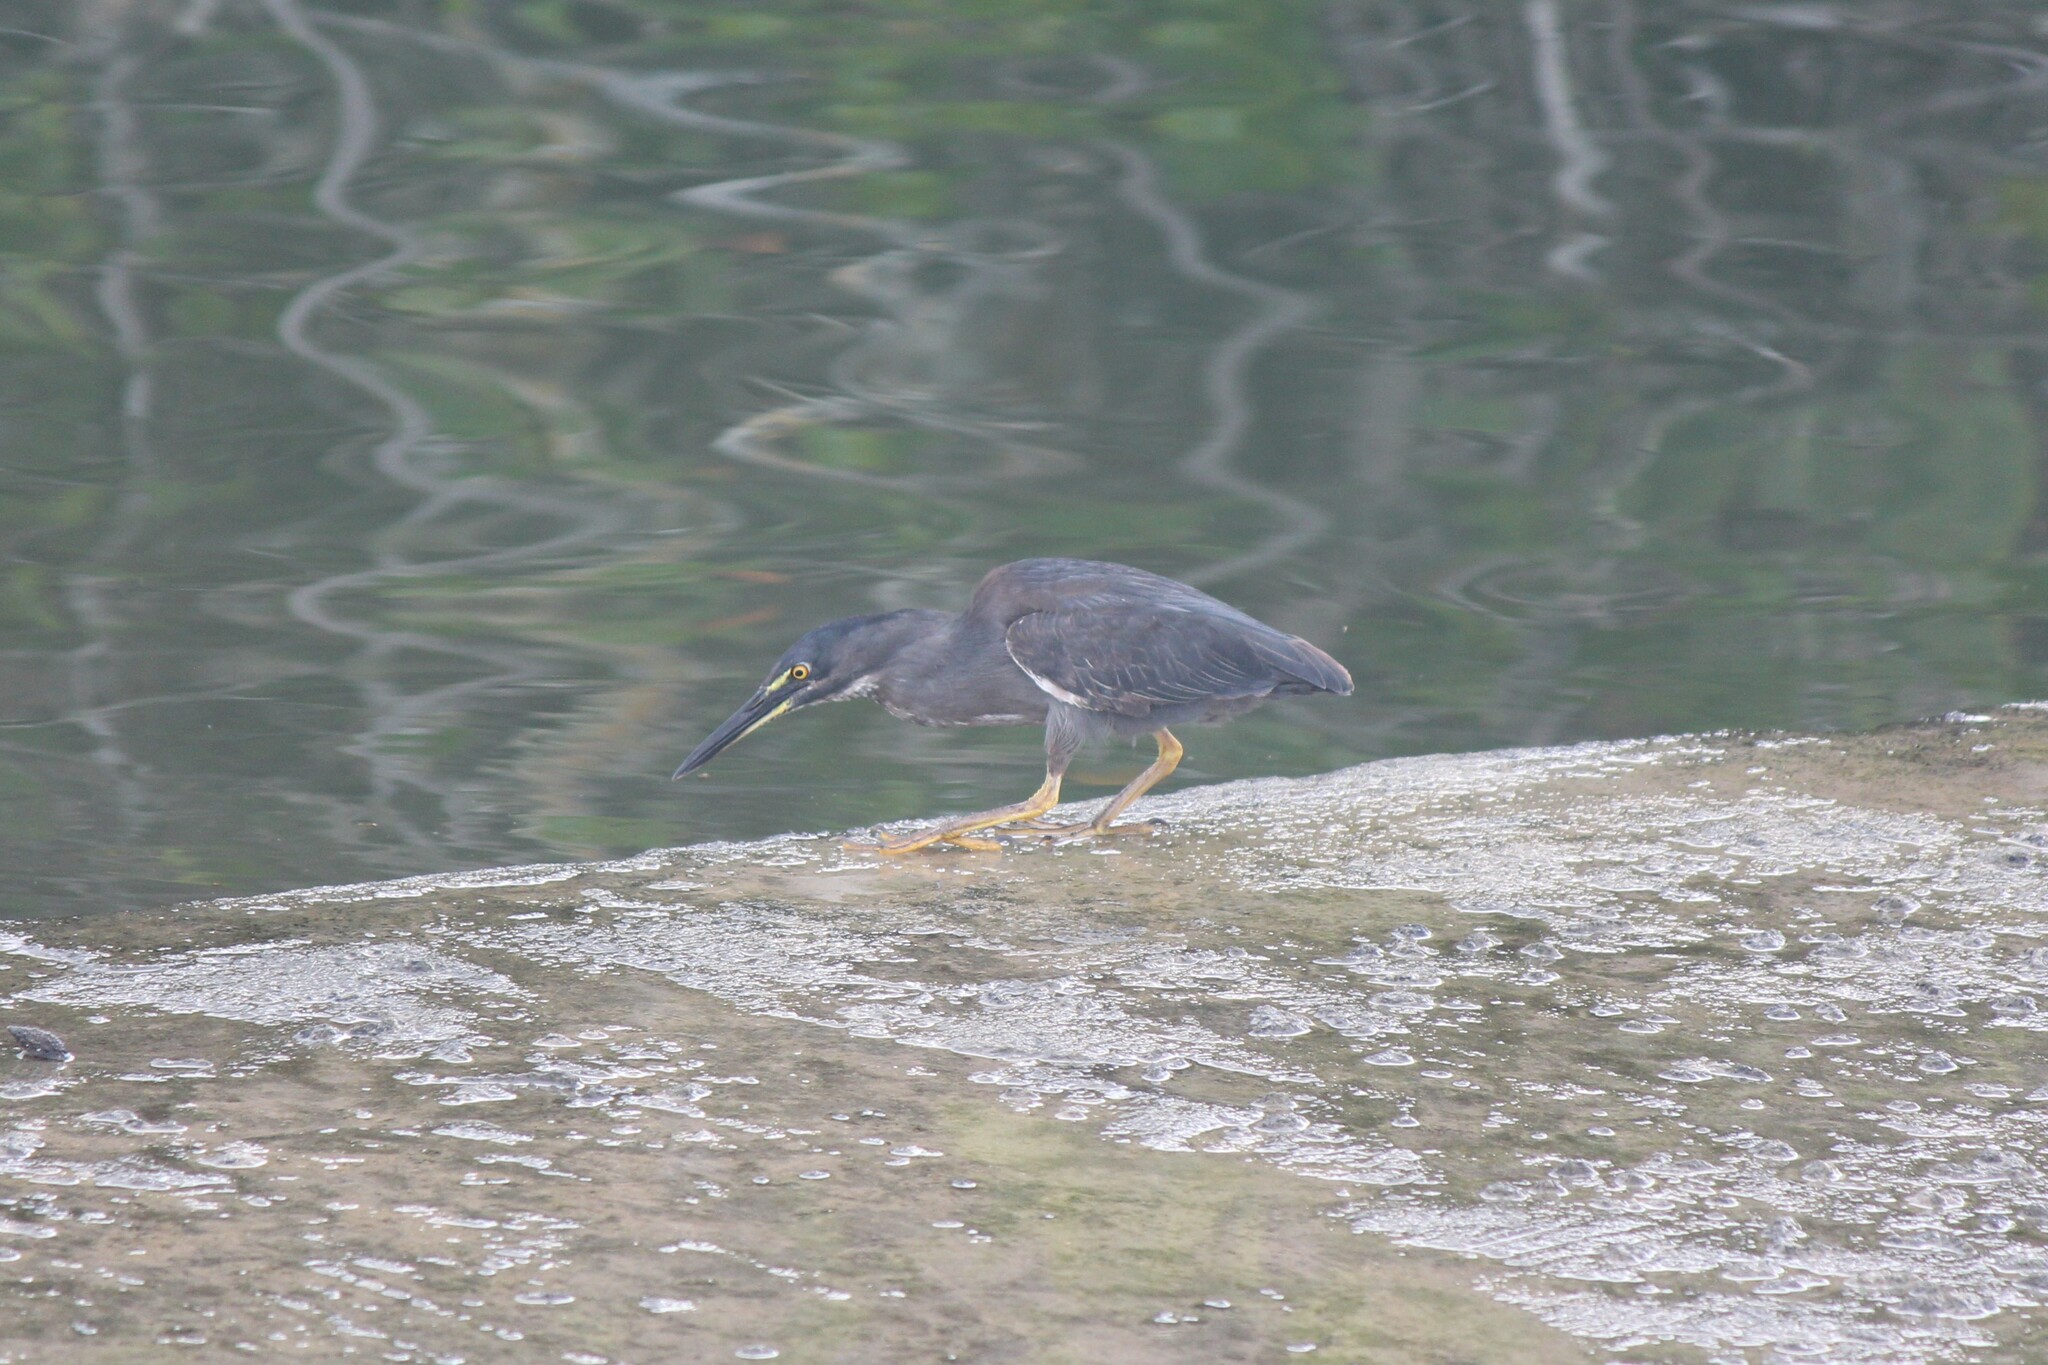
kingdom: Animalia
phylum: Chordata
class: Aves
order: Pelecaniformes
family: Ardeidae
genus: Butorides
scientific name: Butorides striata
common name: Striated heron
